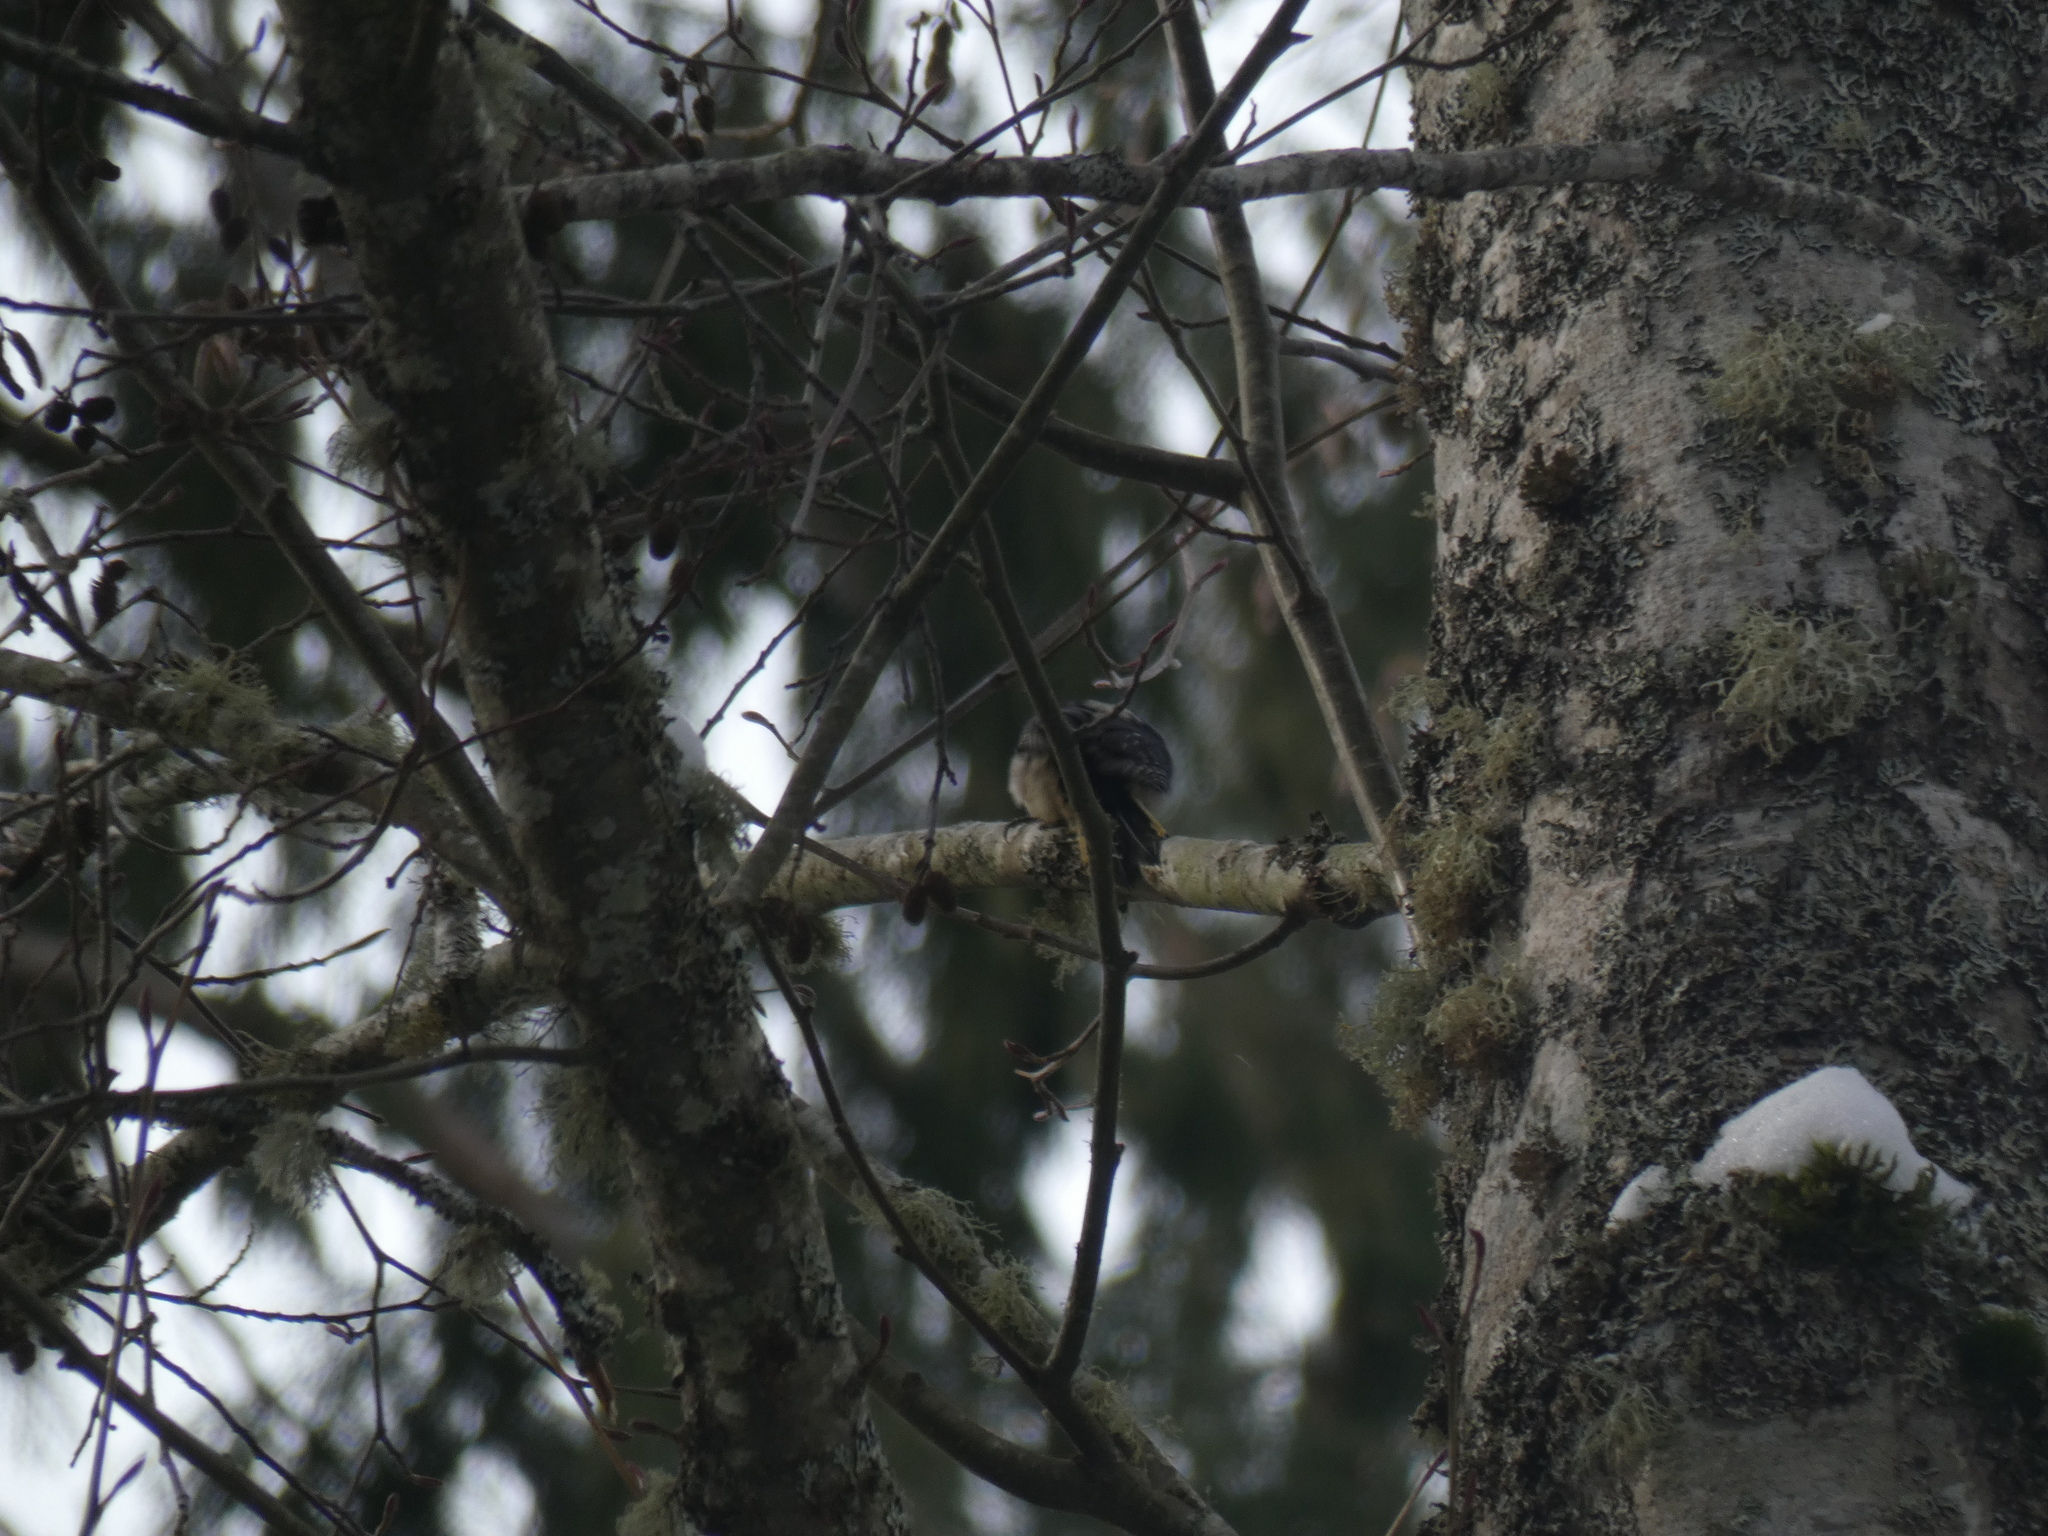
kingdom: Animalia
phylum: Chordata
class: Aves
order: Passeriformes
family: Certhiidae
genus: Certhia
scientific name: Certhia americana
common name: Brown creeper
